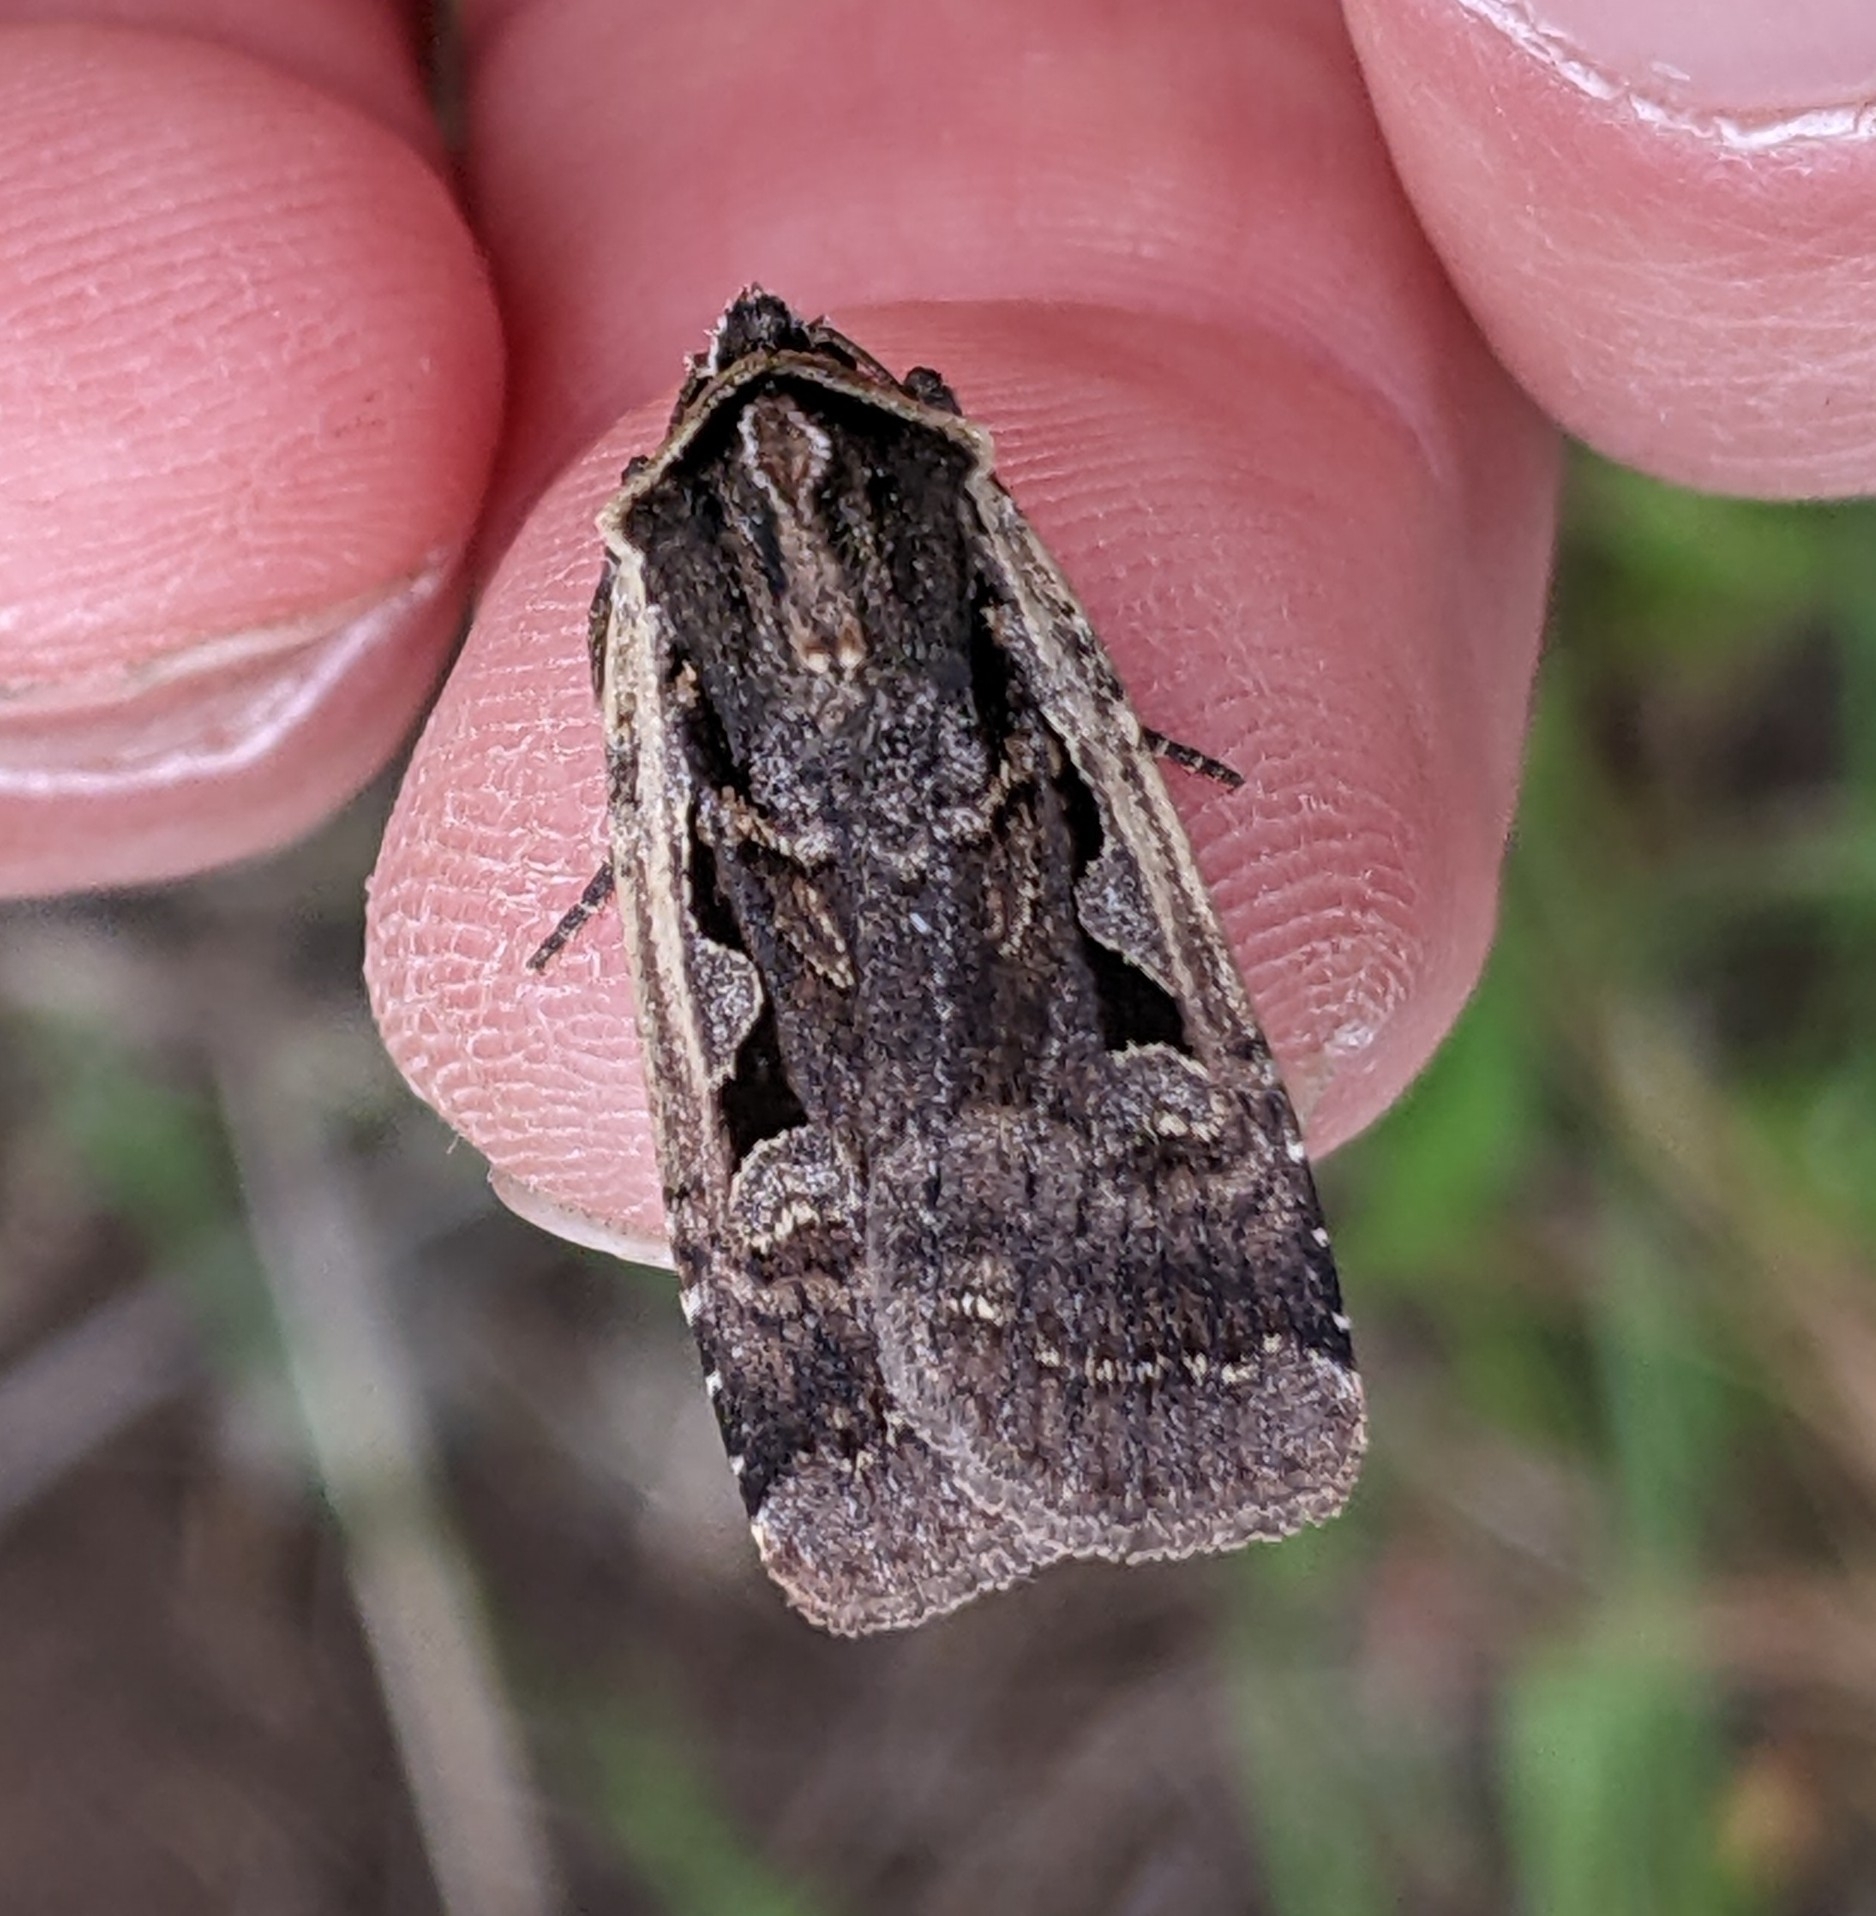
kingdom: Animalia
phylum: Arthropoda
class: Insecta
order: Lepidoptera
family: Noctuidae
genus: Parabagrotis
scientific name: Parabagrotis exsertistigma
